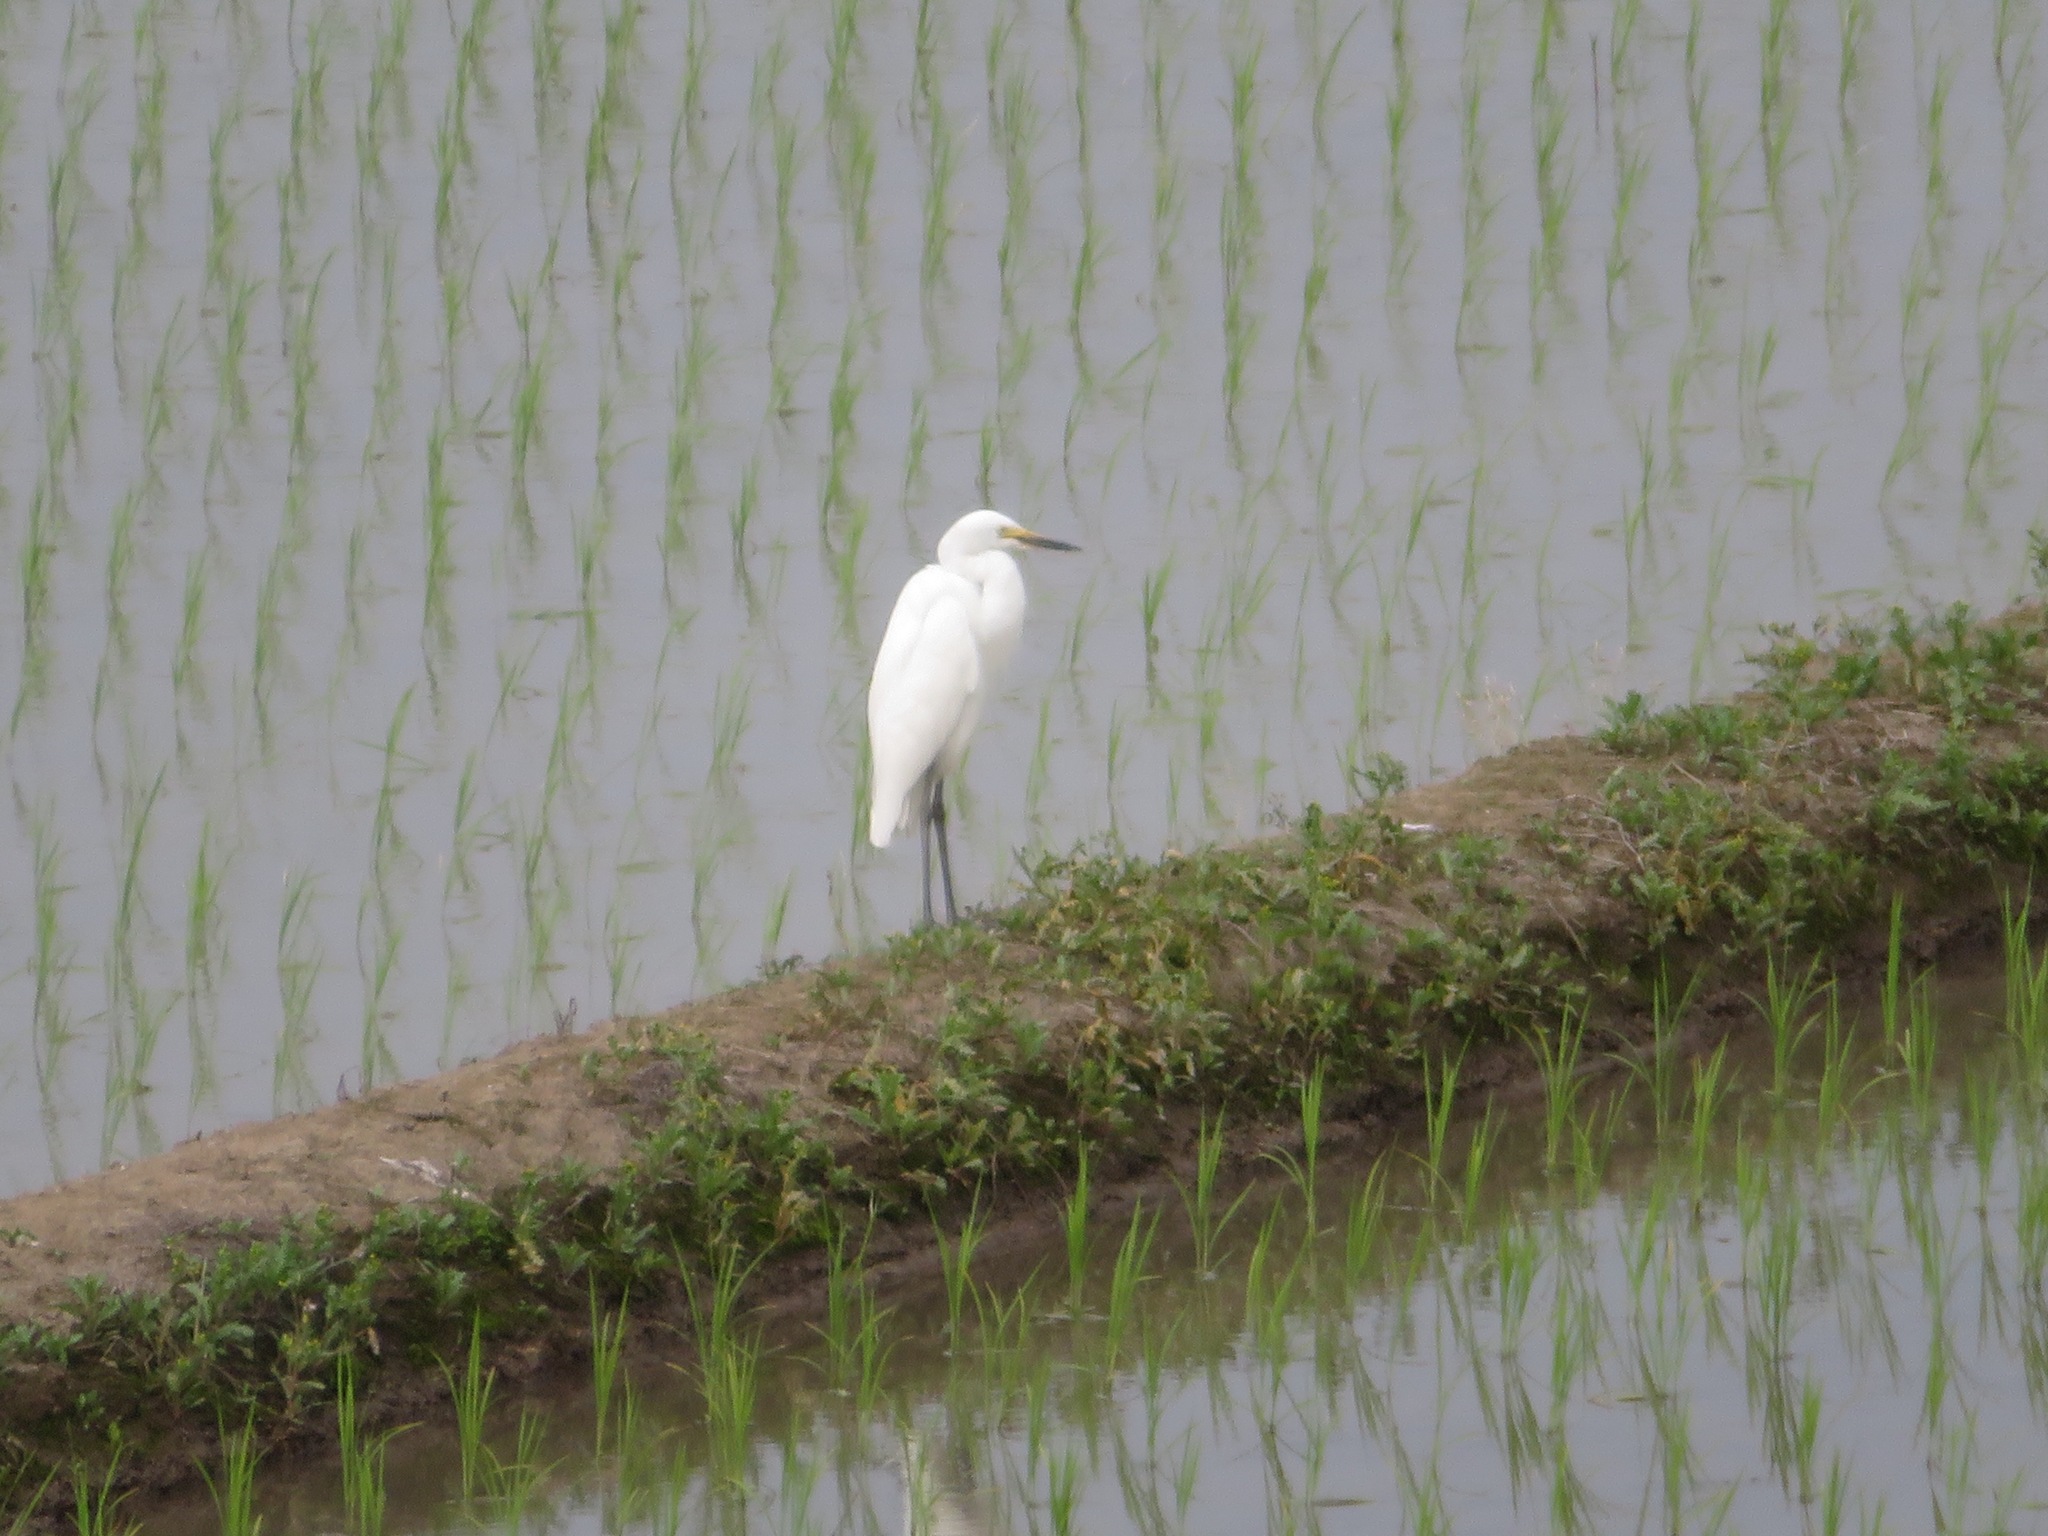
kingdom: Animalia
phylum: Chordata
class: Aves
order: Pelecaniformes
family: Ardeidae
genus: Egretta
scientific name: Egretta garzetta
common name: Little egret
